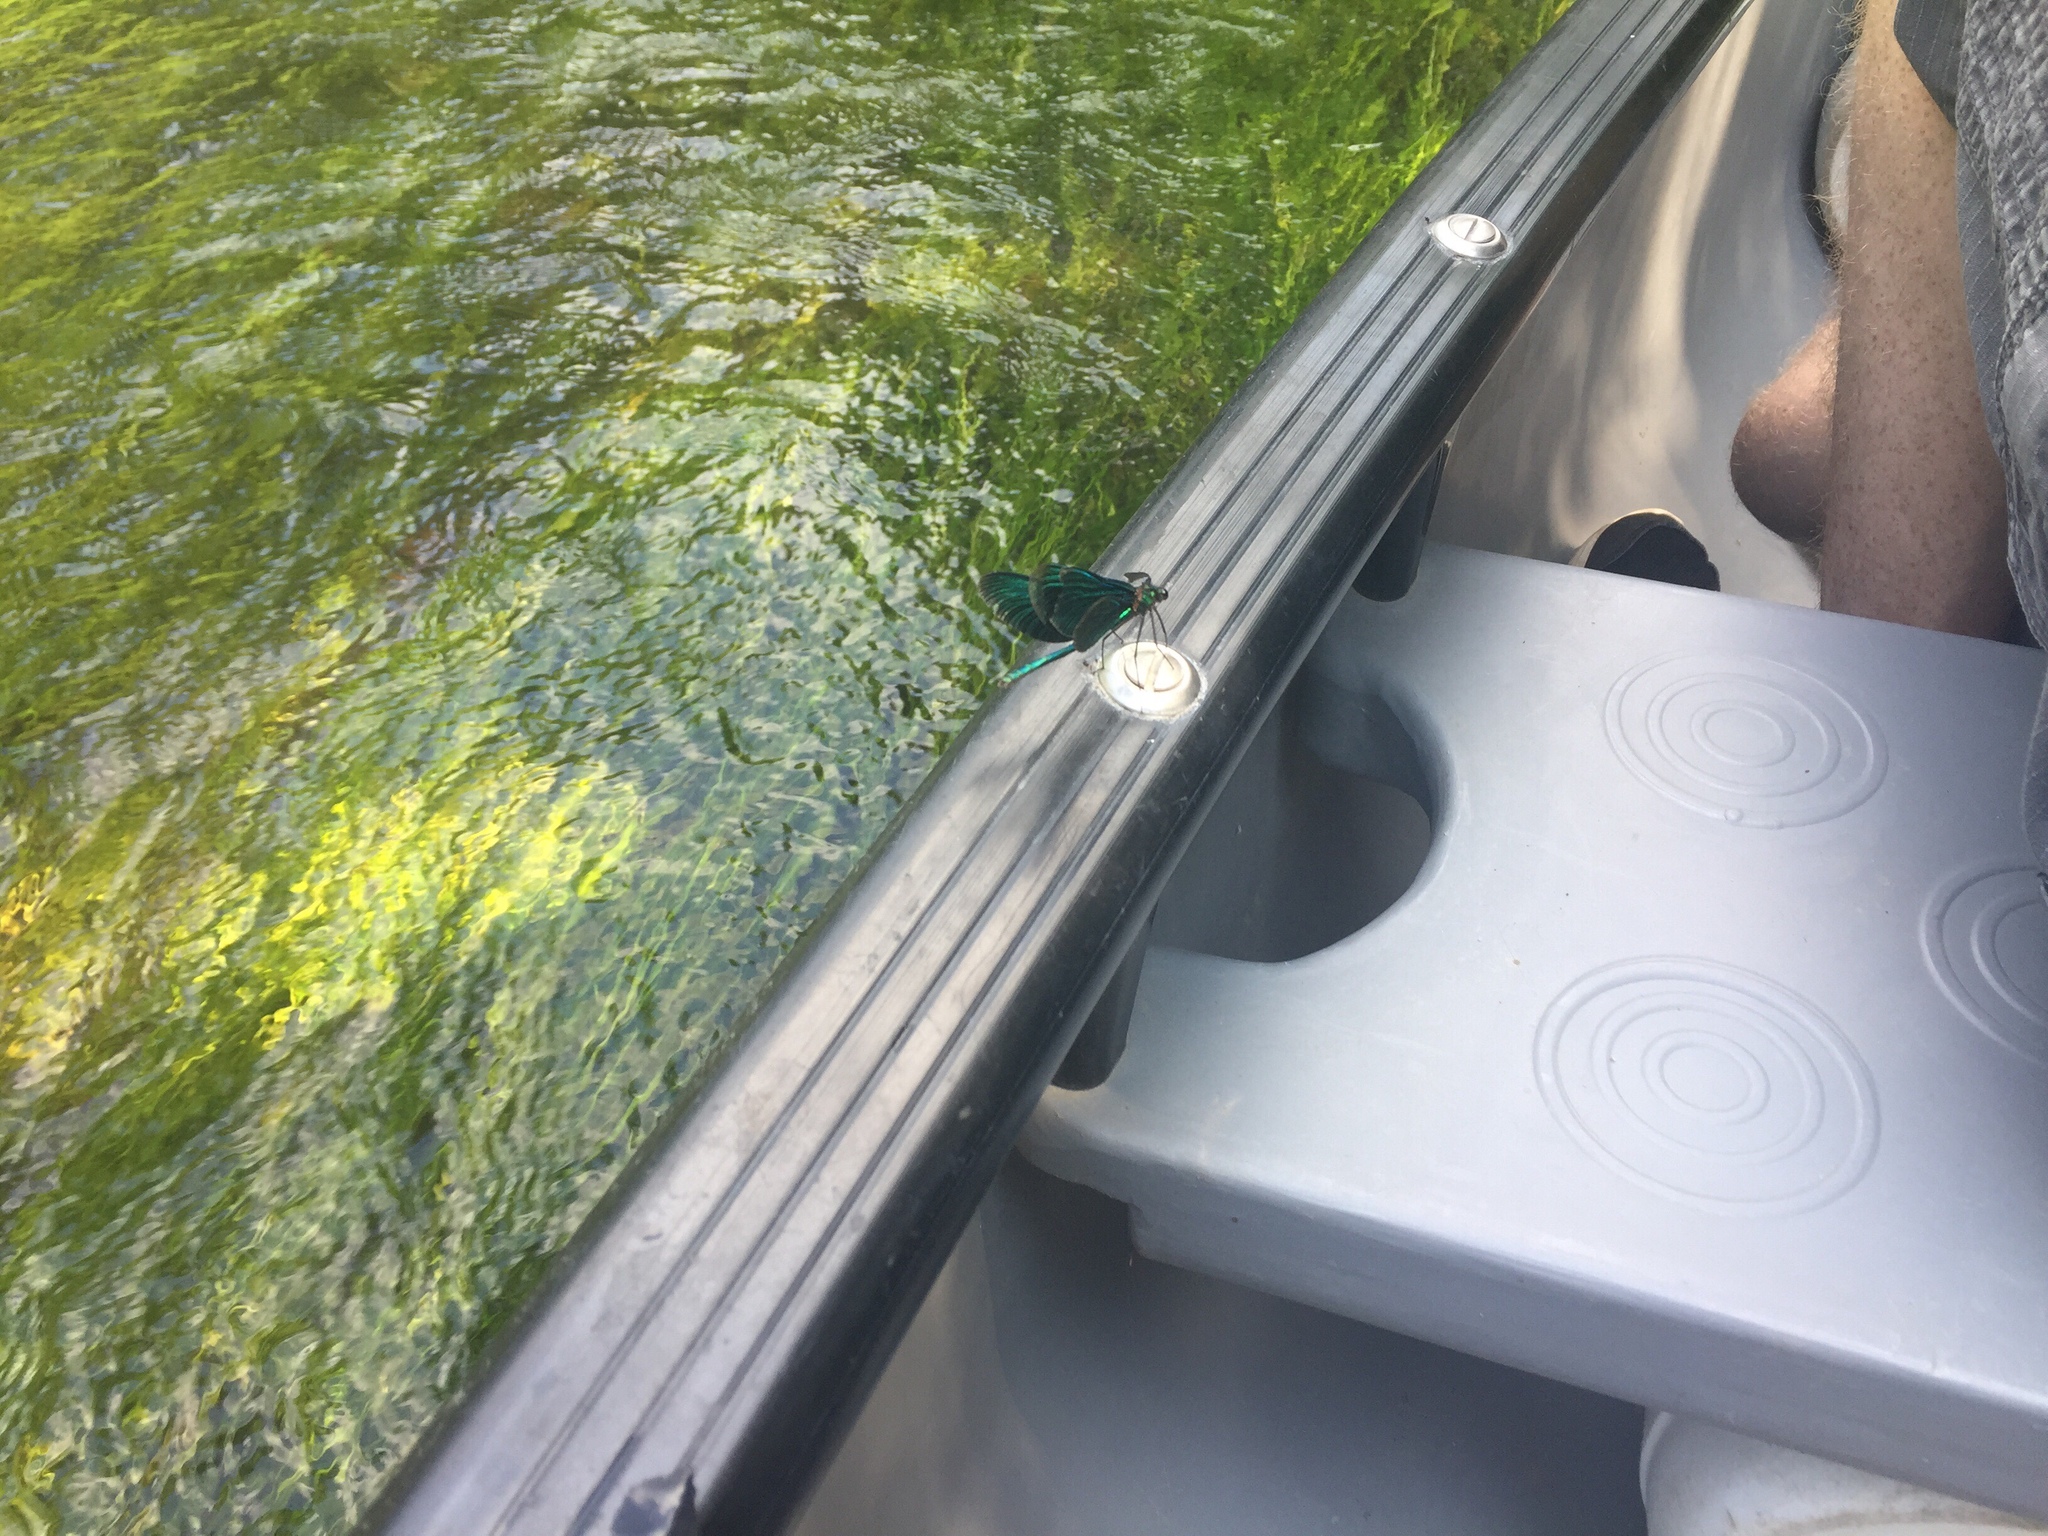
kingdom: Animalia
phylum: Arthropoda
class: Insecta
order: Odonata
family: Calopterygidae
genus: Calopteryx
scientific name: Calopteryx virgo
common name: Beautiful demoiselle
